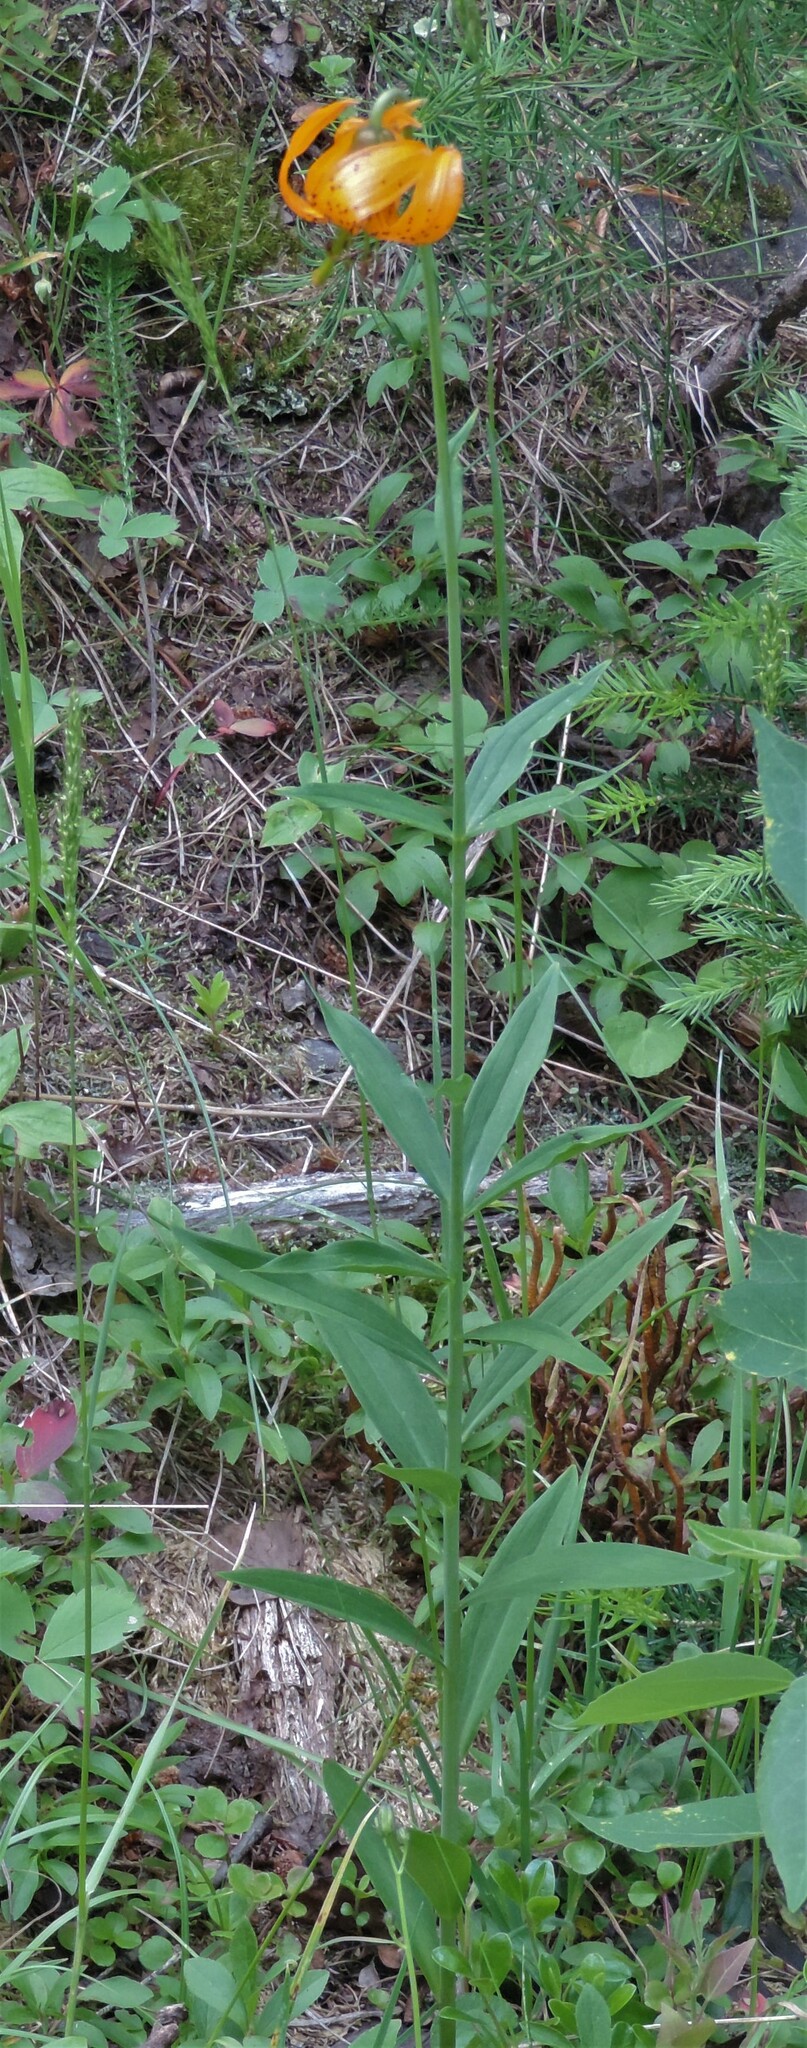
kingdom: Plantae
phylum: Tracheophyta
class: Liliopsida
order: Liliales
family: Liliaceae
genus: Lilium
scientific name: Lilium columbianum
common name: Columbia lily
